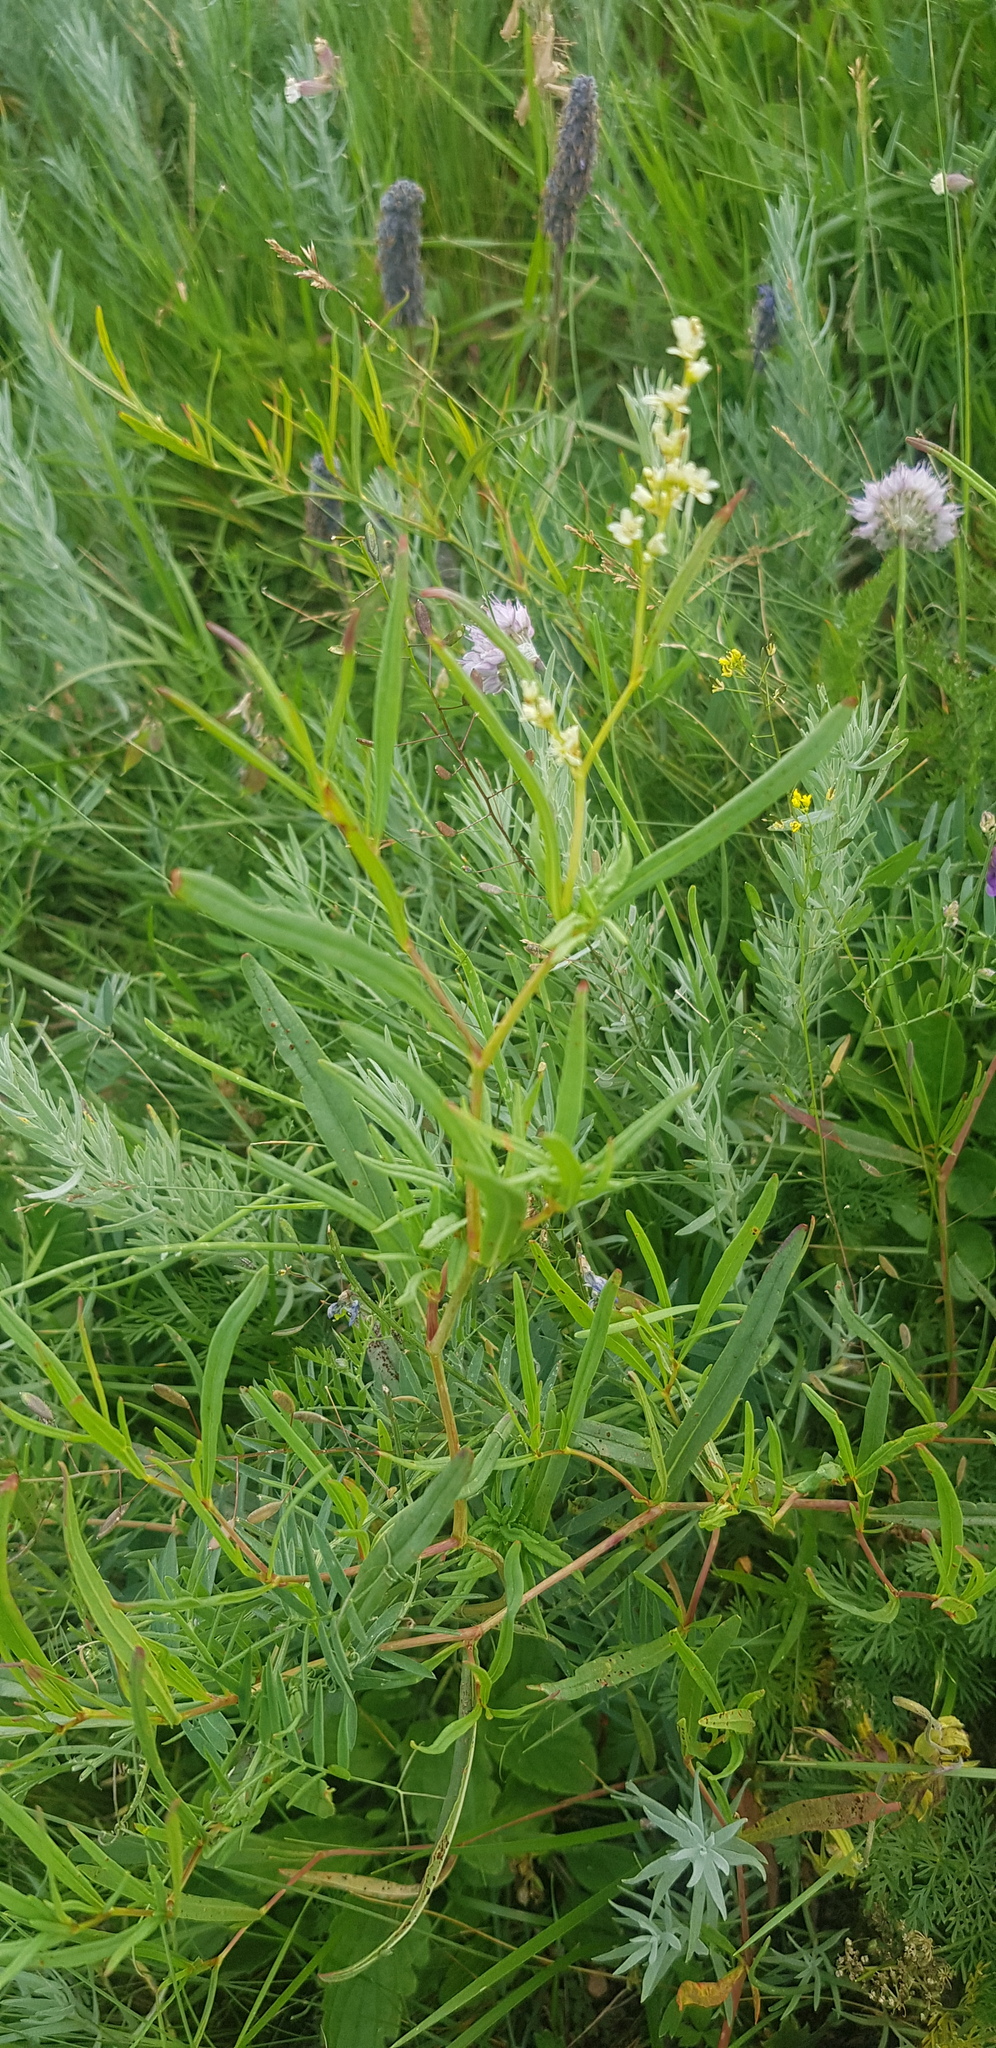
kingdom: Plantae
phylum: Tracheophyta
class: Magnoliopsida
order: Caryophyllales
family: Polygonaceae
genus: Bistorta
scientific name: Bistorta vivipara
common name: Alpine bistort
